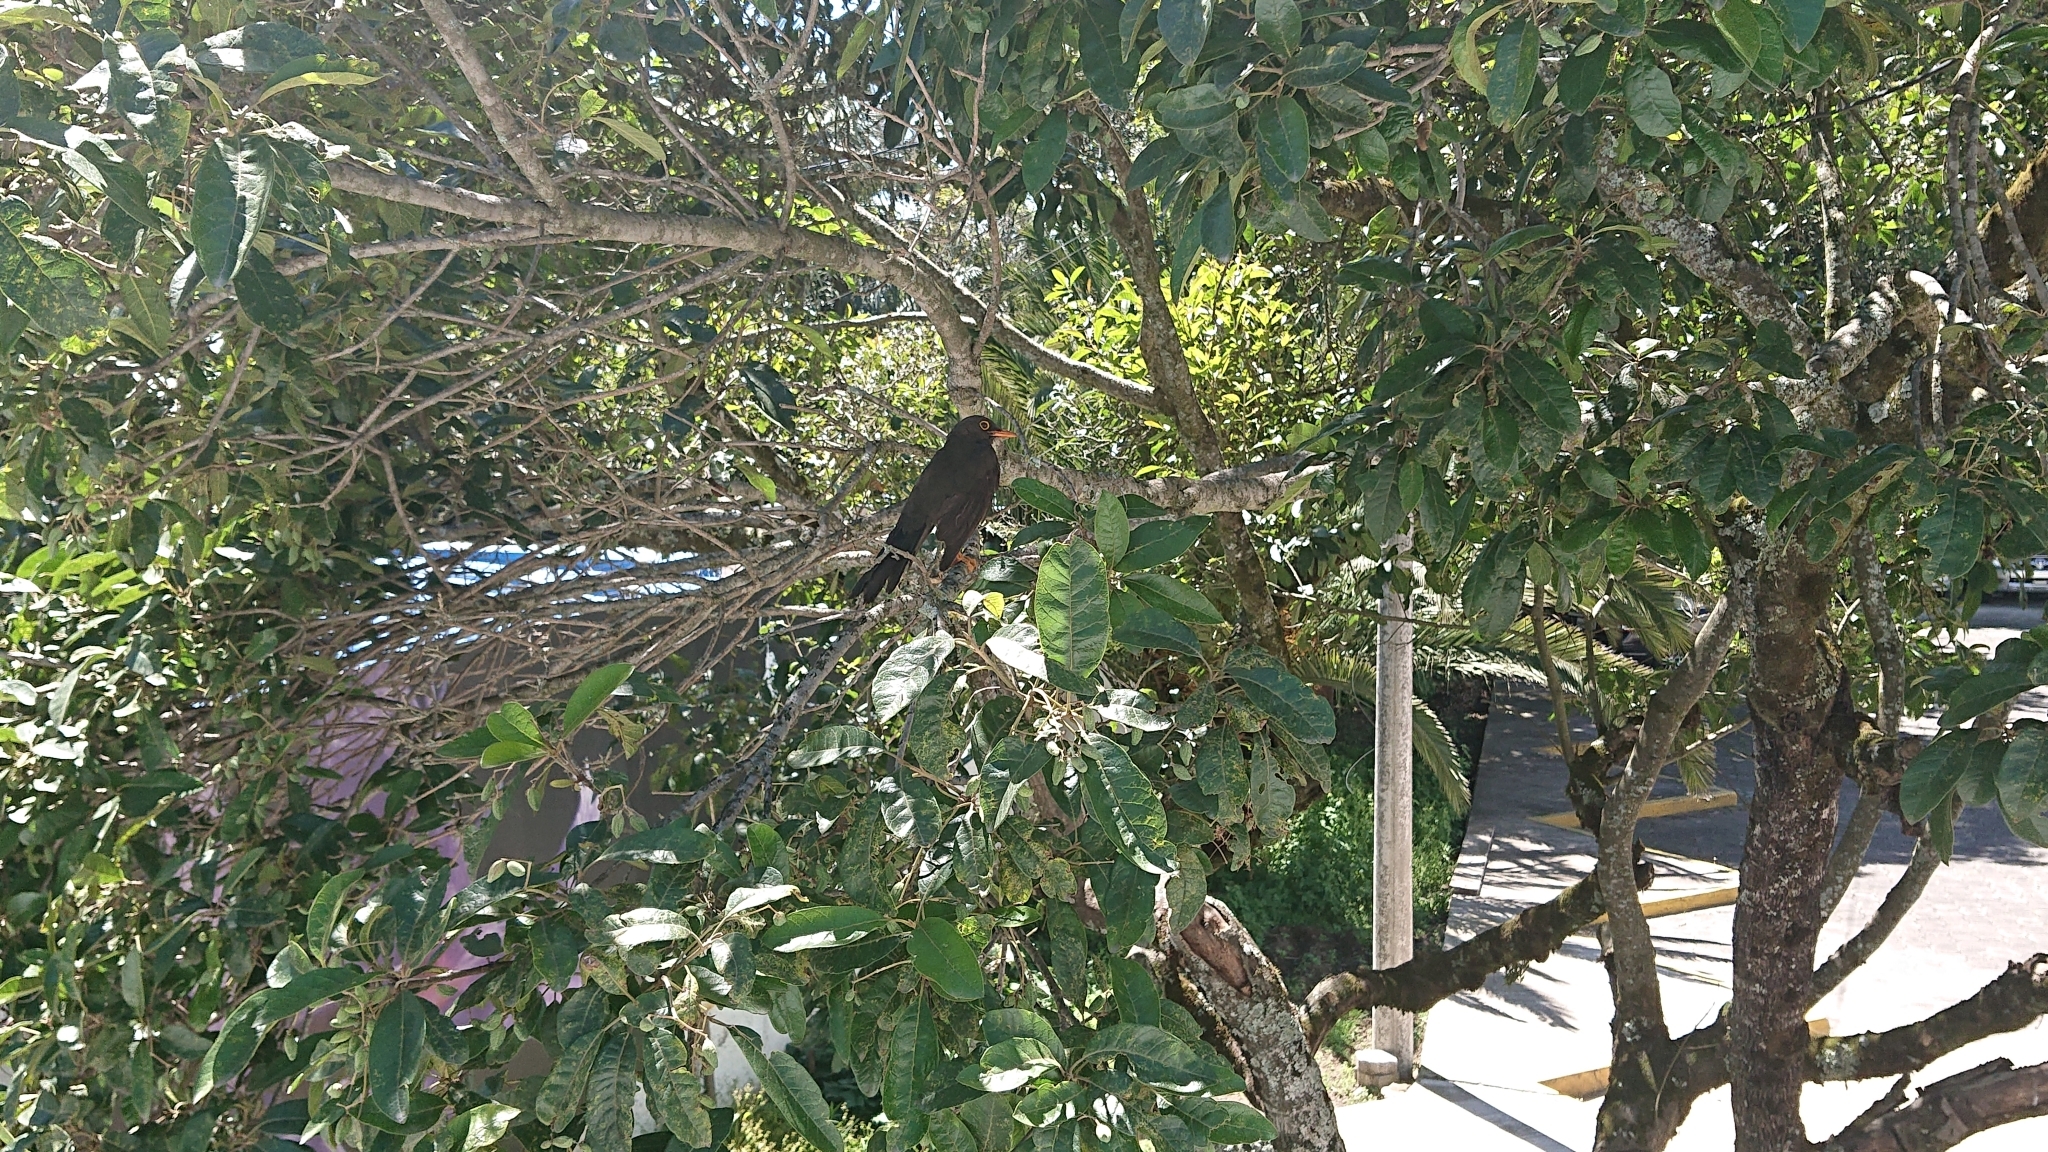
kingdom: Animalia
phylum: Chordata
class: Aves
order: Passeriformes
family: Turdidae
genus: Turdus
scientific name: Turdus fuscater
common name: Great thrush
